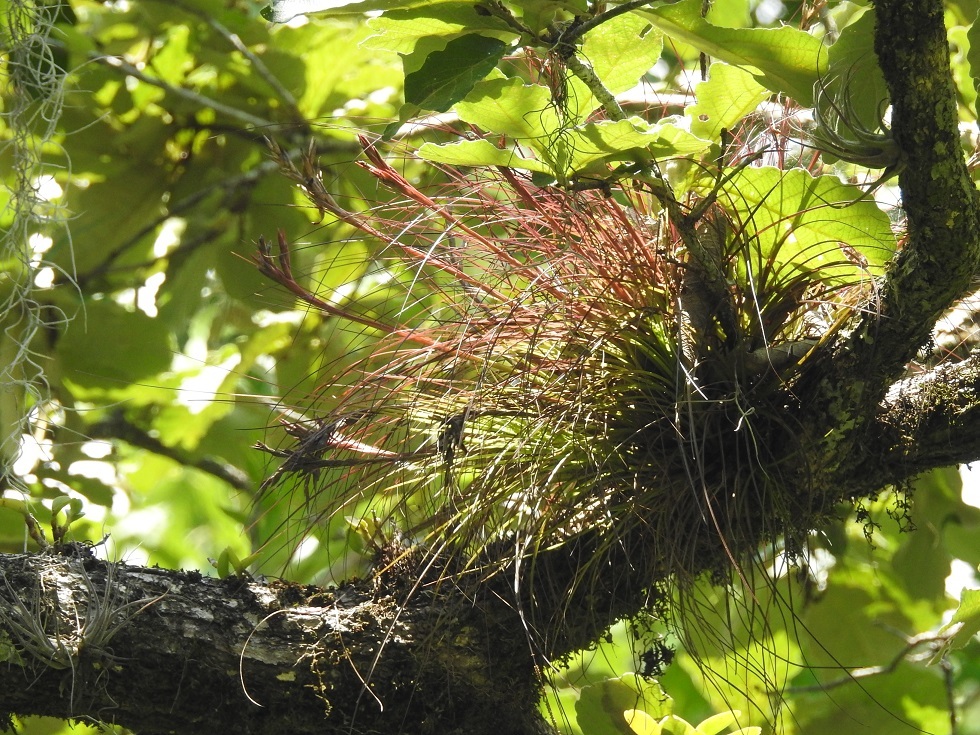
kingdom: Plantae
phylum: Tracheophyta
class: Liliopsida
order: Poales
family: Bromeliaceae
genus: Tillandsia
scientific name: Tillandsia juncea
